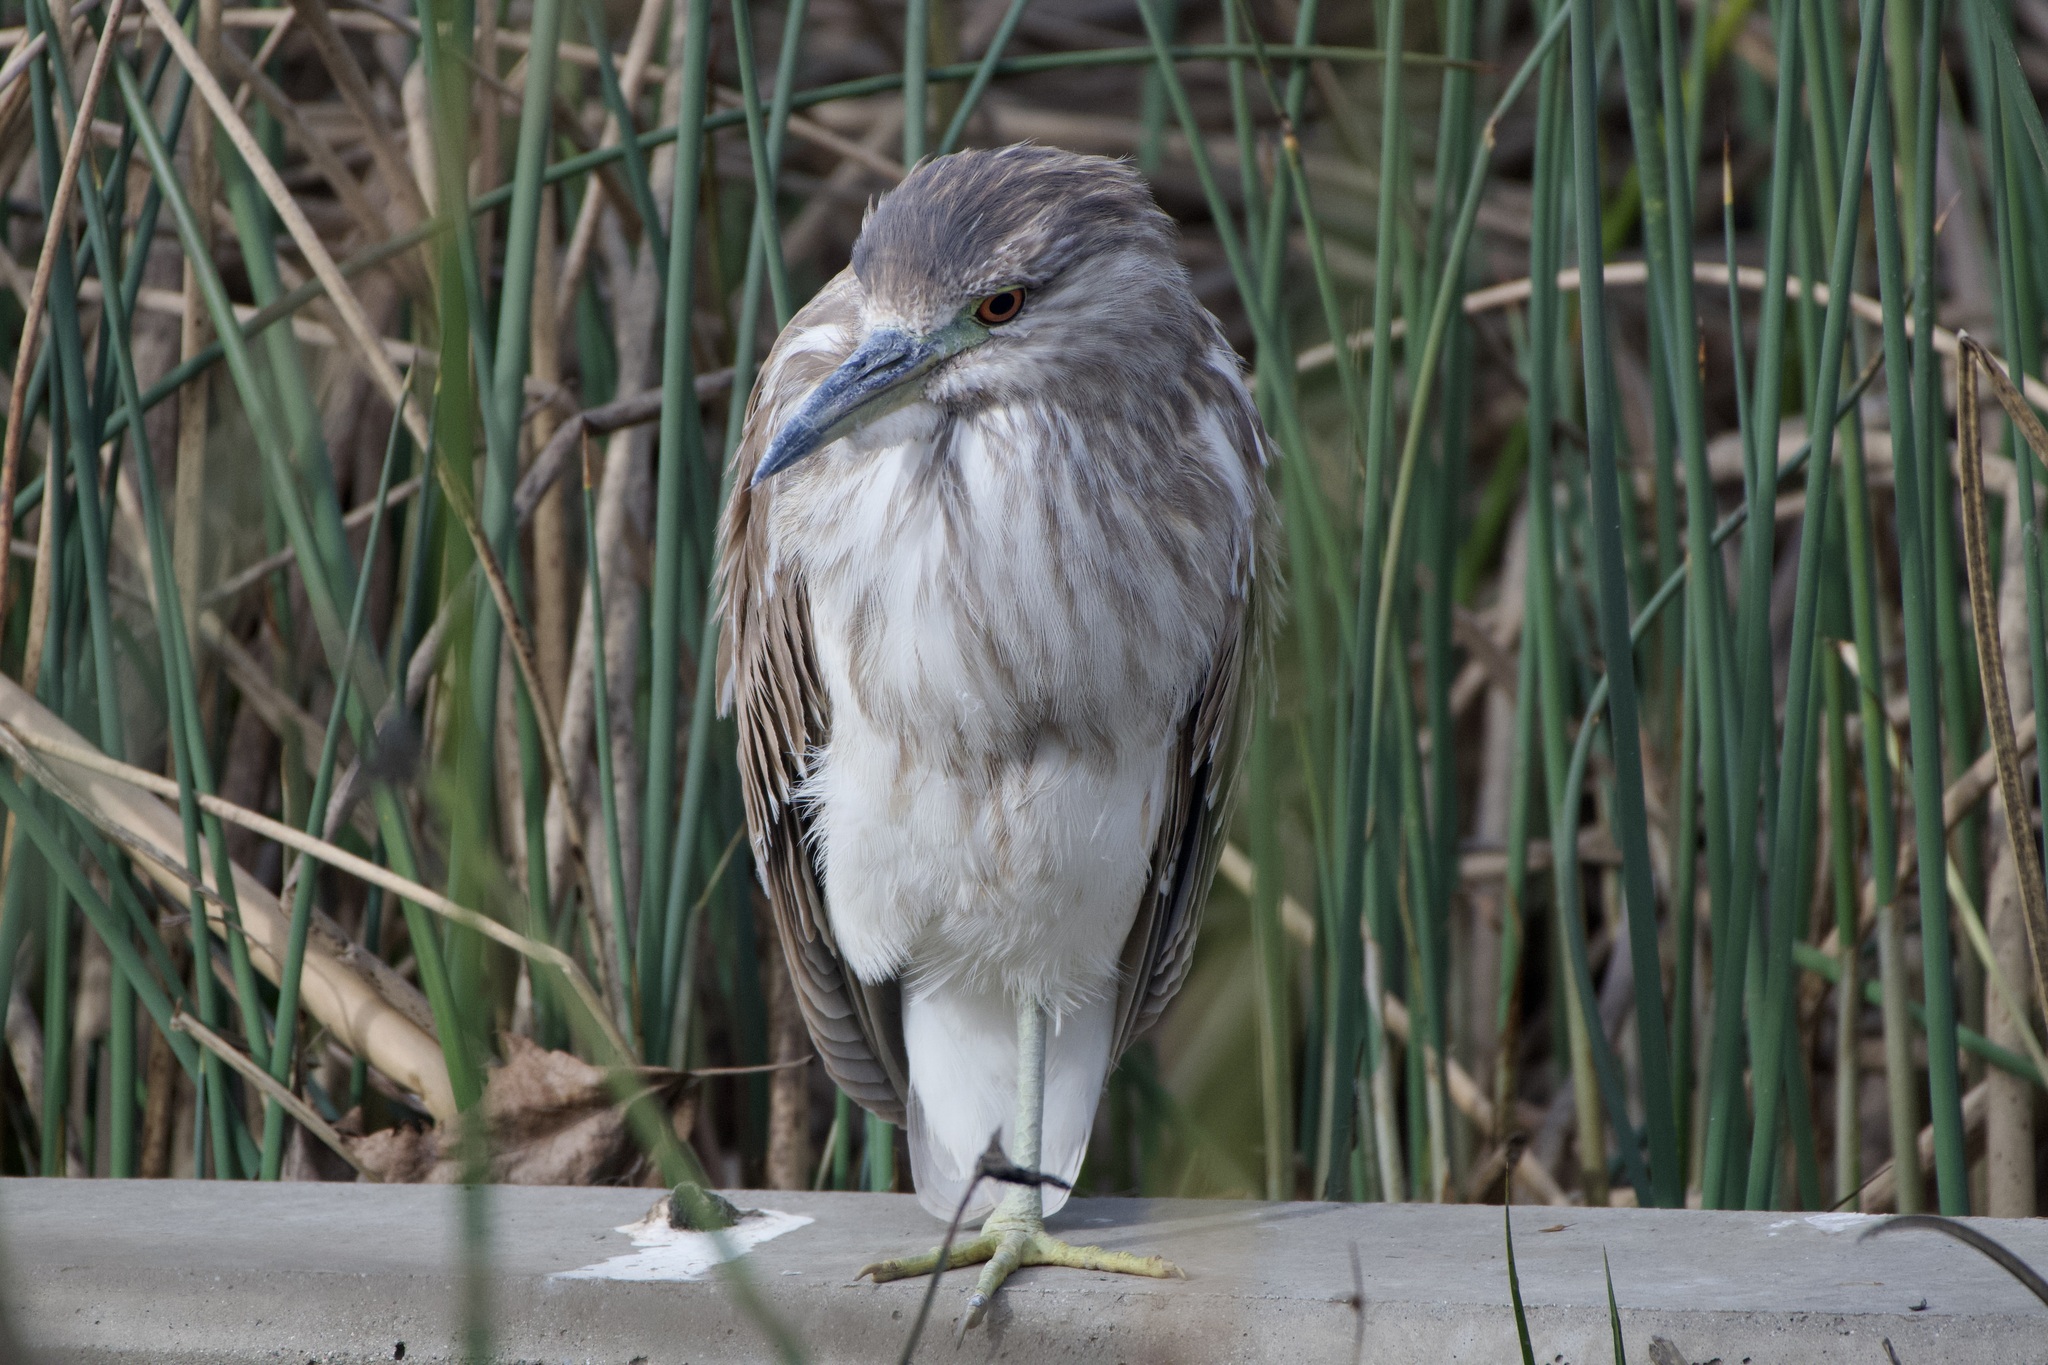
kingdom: Animalia
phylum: Chordata
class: Aves
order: Pelecaniformes
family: Ardeidae
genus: Nycticorax
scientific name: Nycticorax nycticorax
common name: Black-crowned night heron
